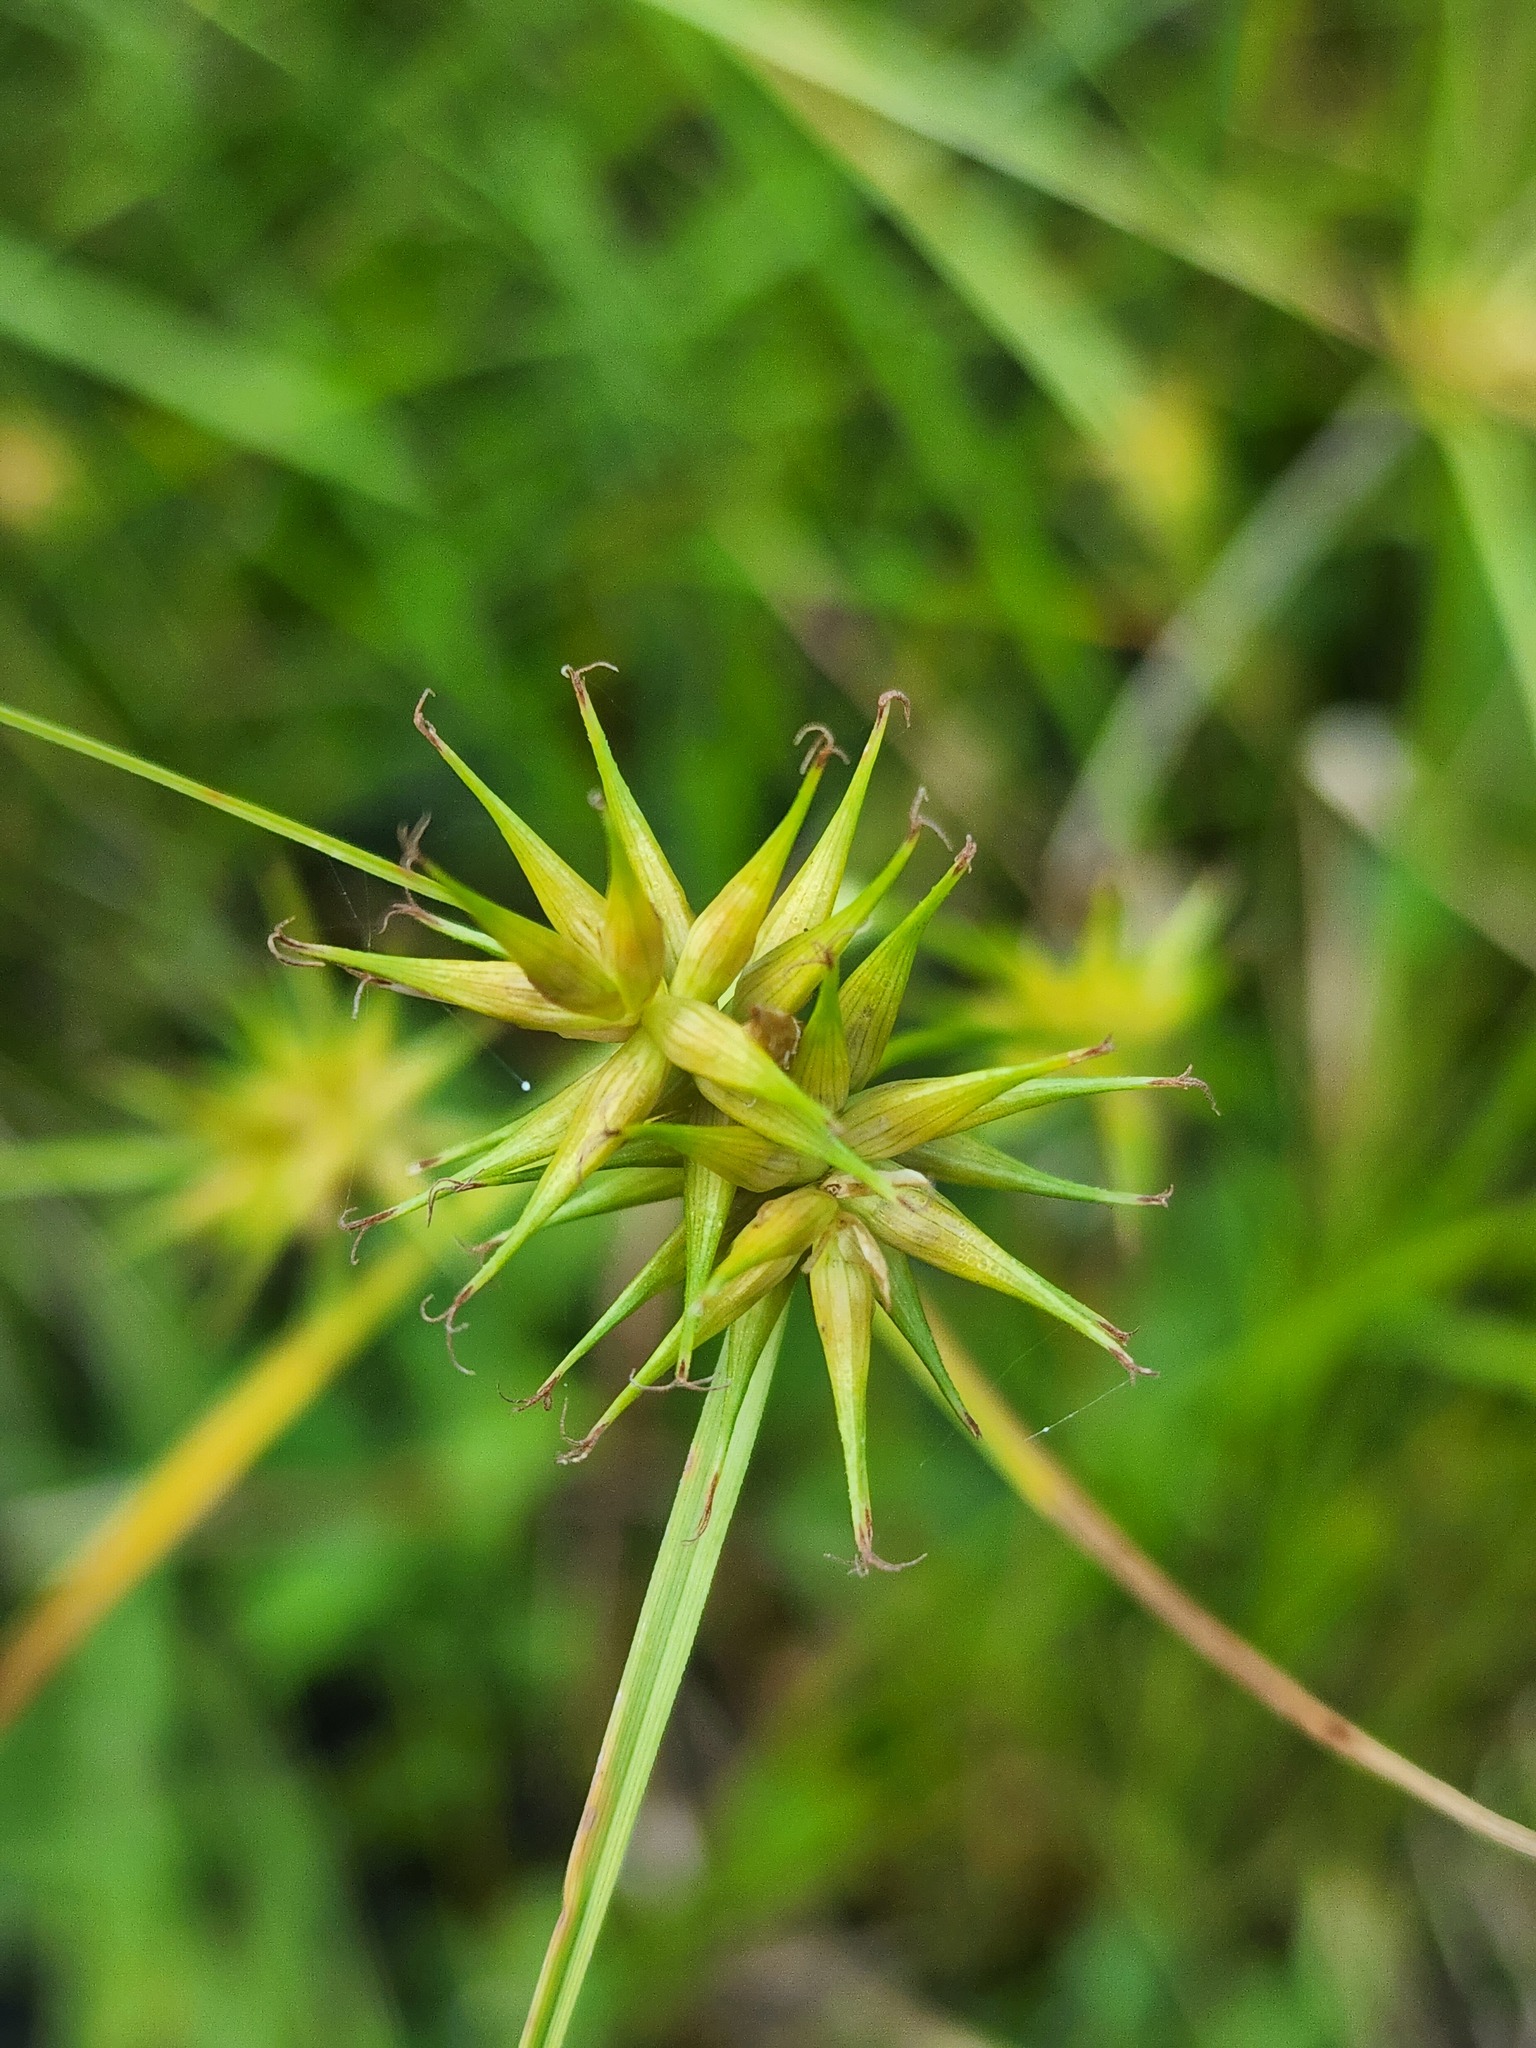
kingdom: Plantae
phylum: Tracheophyta
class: Liliopsida
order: Poales
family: Cyperaceae
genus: Carex
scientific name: Carex michauxiana
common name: Michaux's sedge
